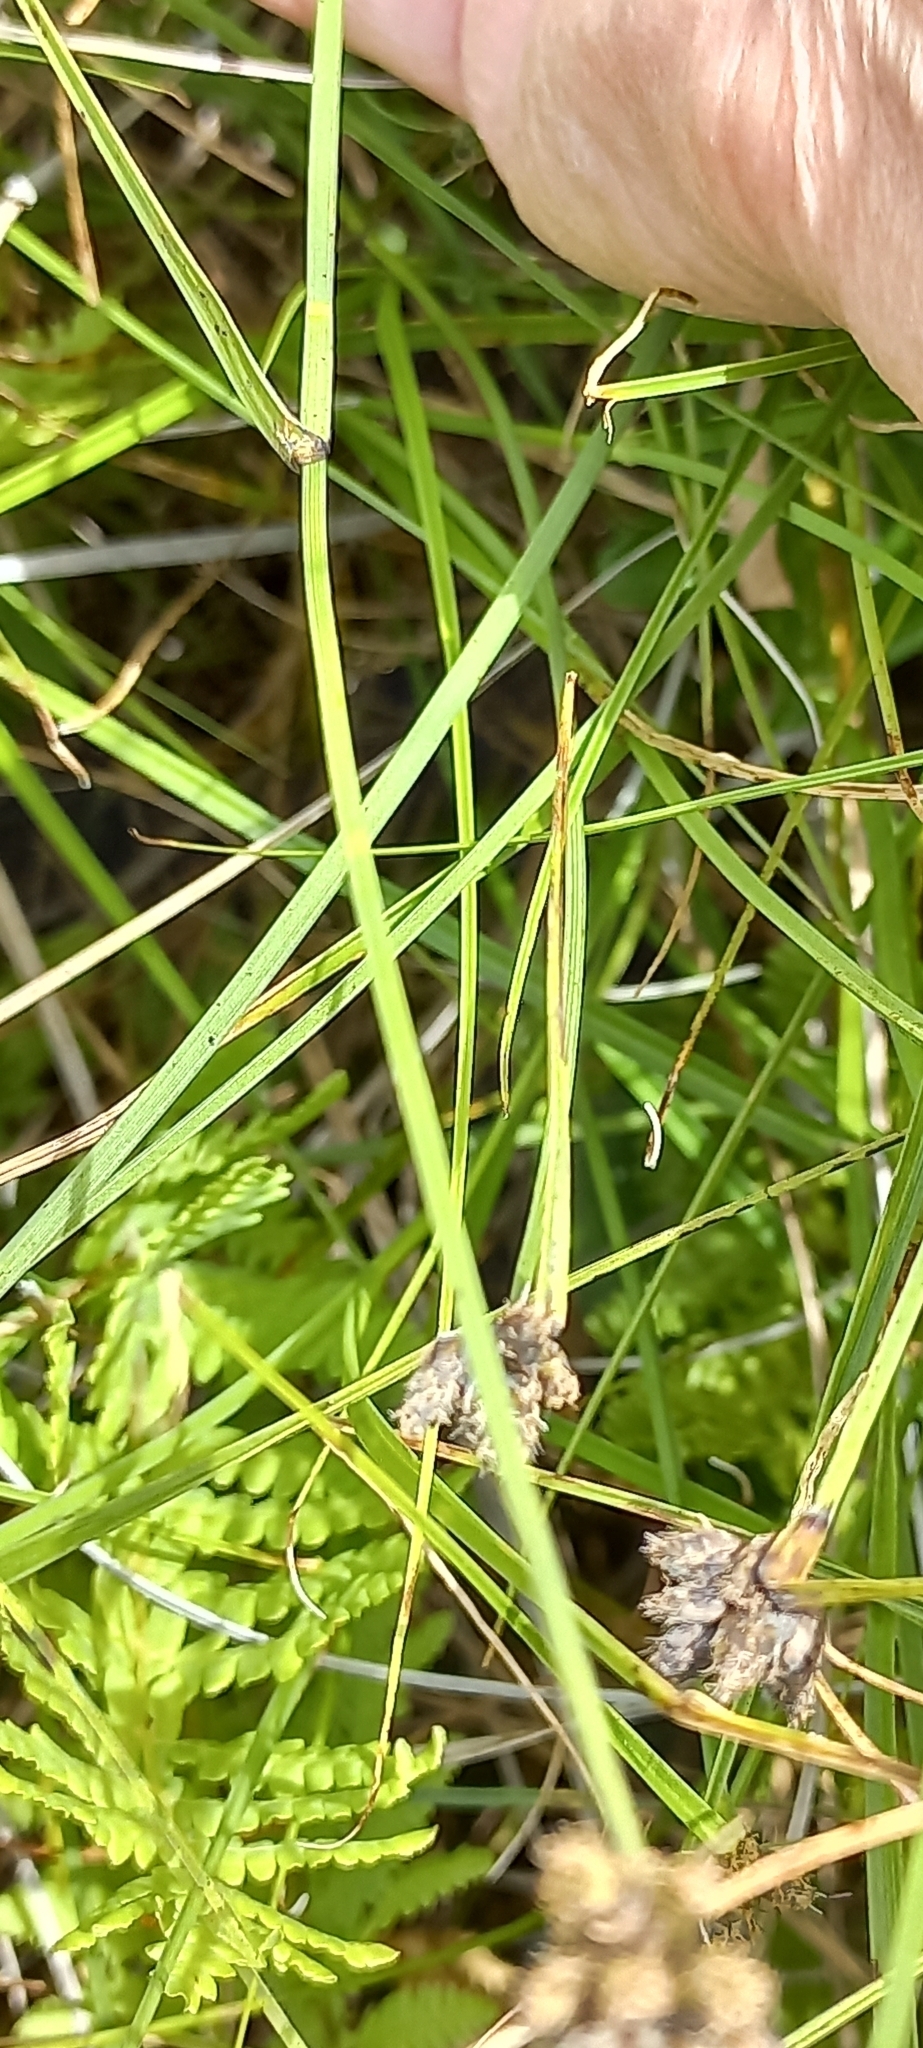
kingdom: Plantae
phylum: Tracheophyta
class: Liliopsida
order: Poales
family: Cyperaceae
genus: Fuirena
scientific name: Fuirena coerulescens
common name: Blue umbrella-sedge
